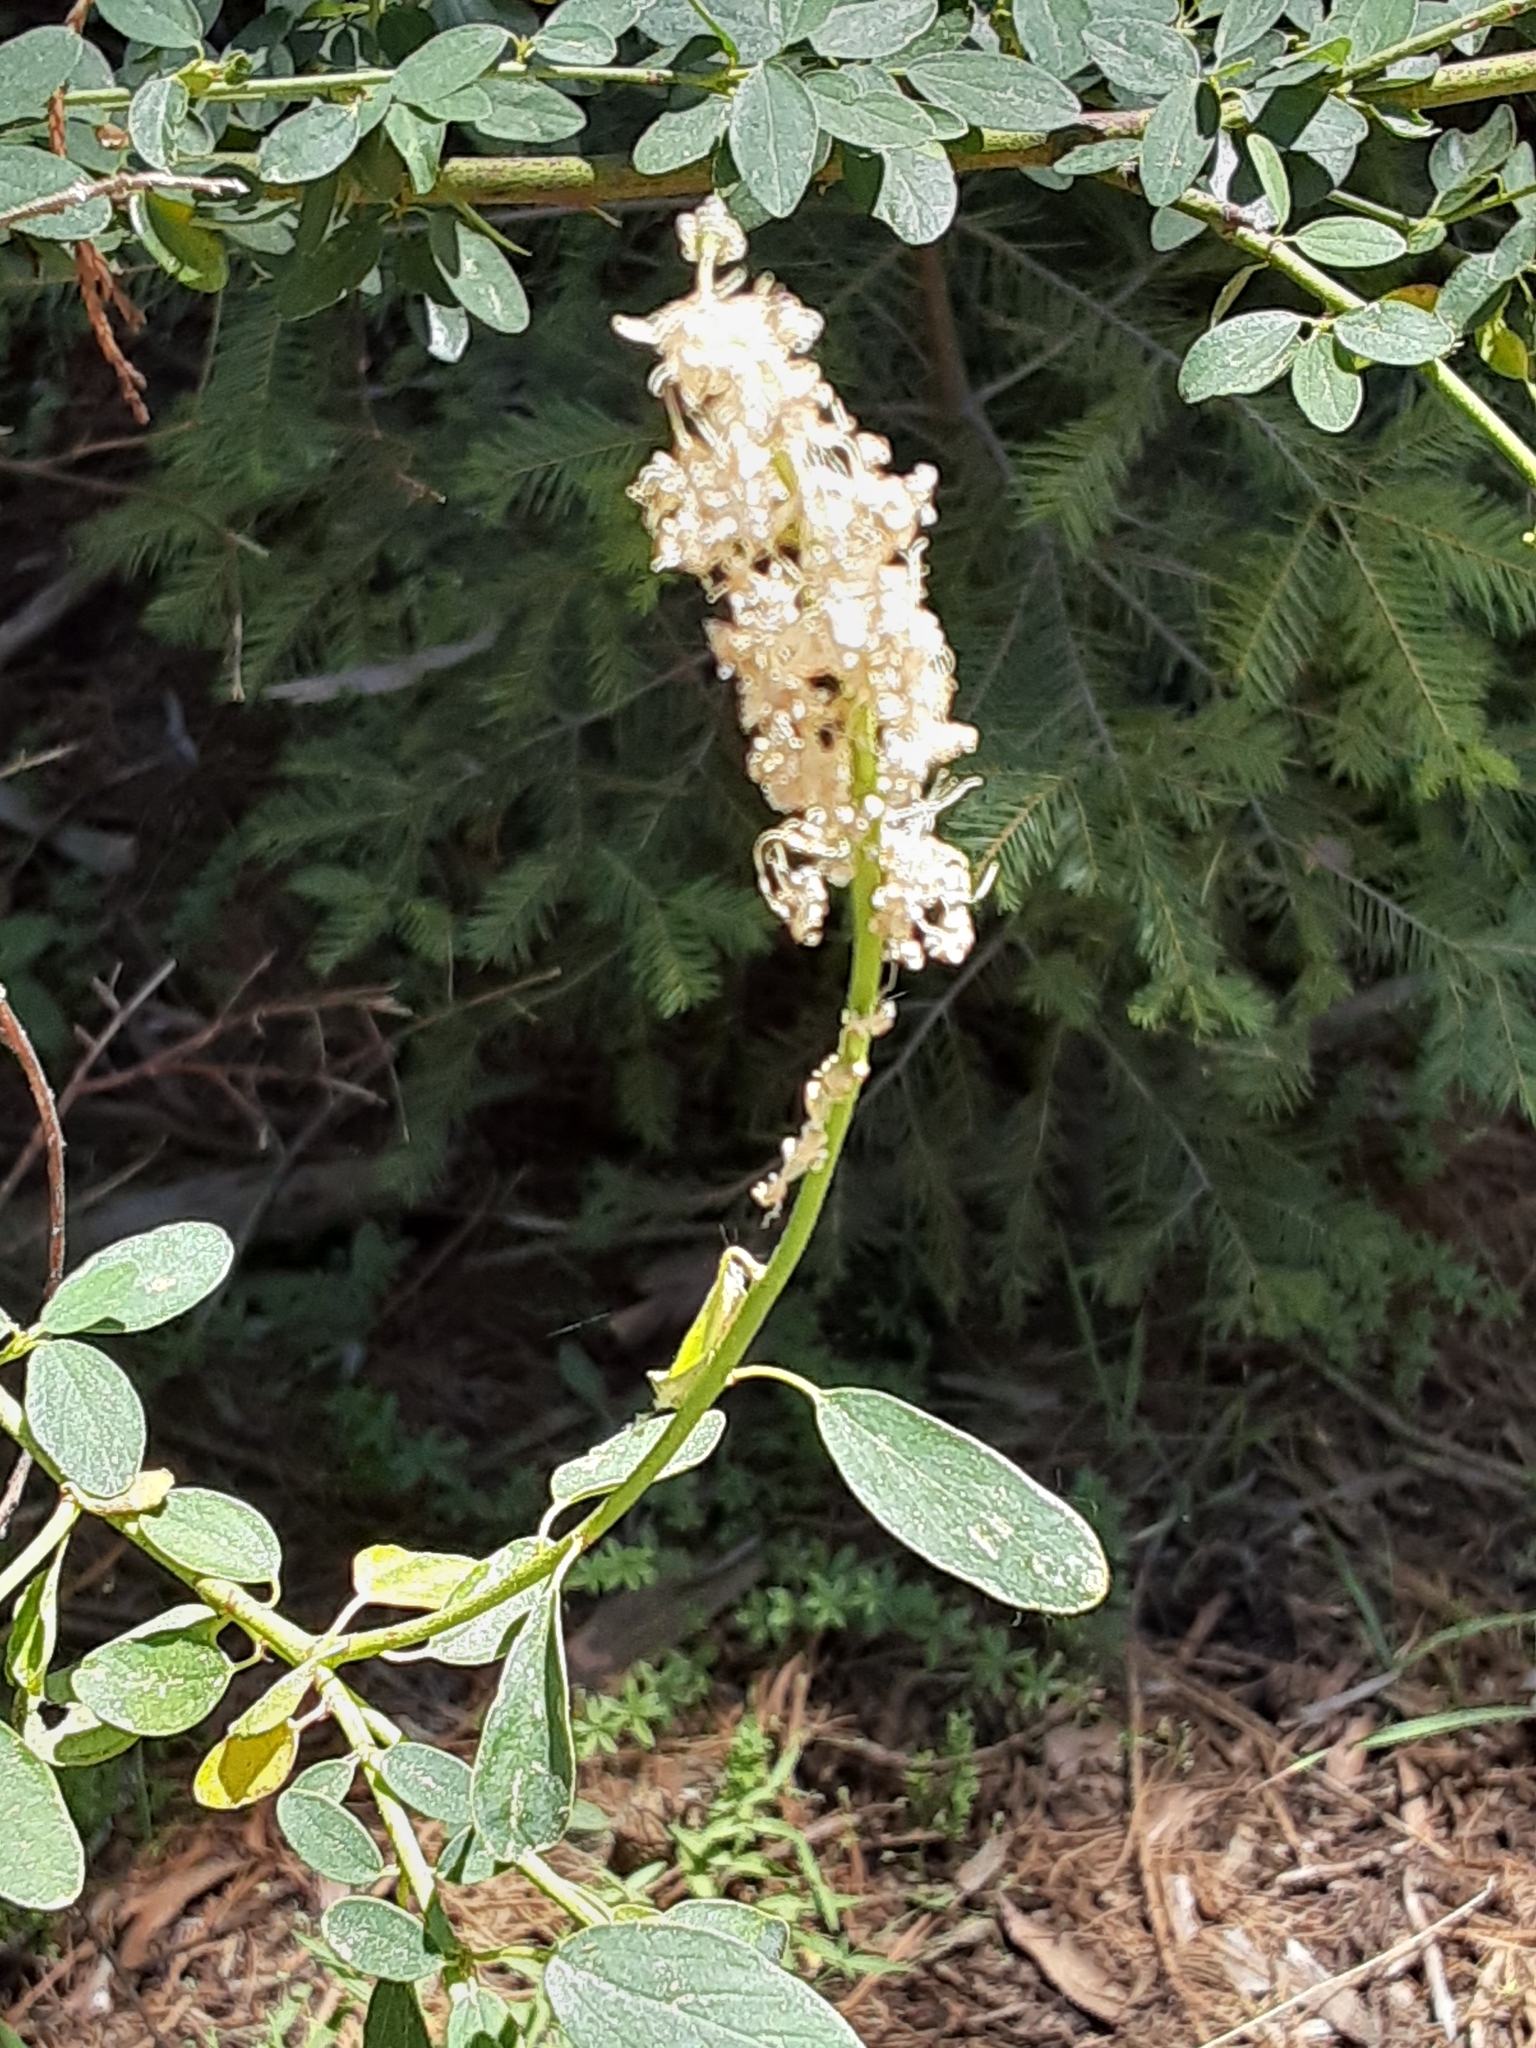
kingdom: Plantae
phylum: Tracheophyta
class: Magnoliopsida
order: Rosales
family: Rhamnaceae
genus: Ceanothus
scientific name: Ceanothus integerrimus
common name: Deerbrush ceanothus
